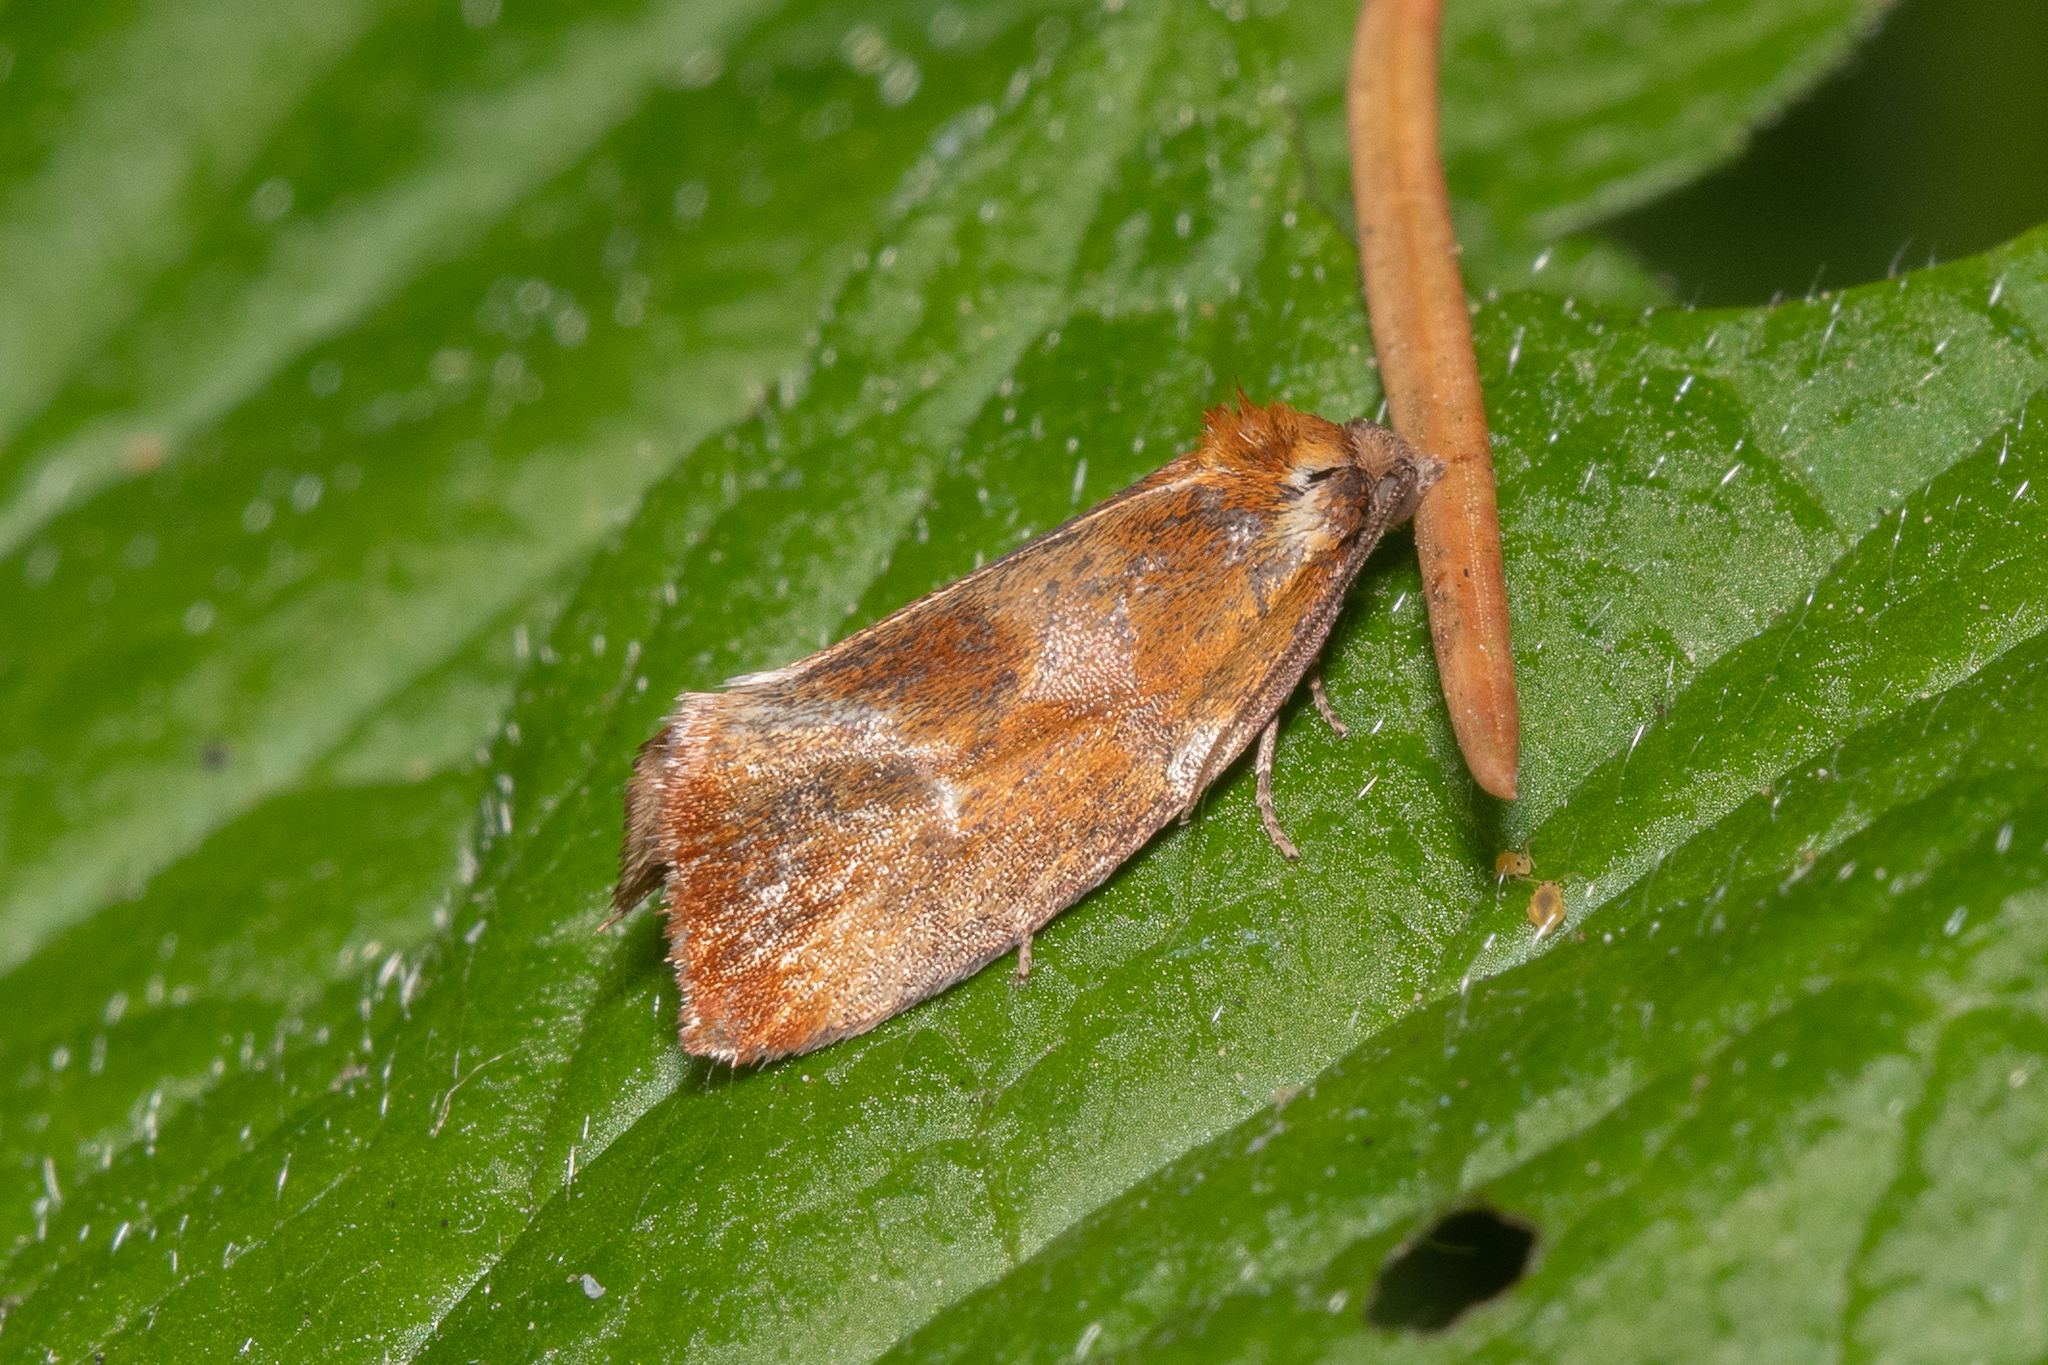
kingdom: Animalia
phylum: Arthropoda
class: Insecta
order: Lepidoptera
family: Tortricidae
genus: Eulia
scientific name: Eulia ministrana
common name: Brassy twist
